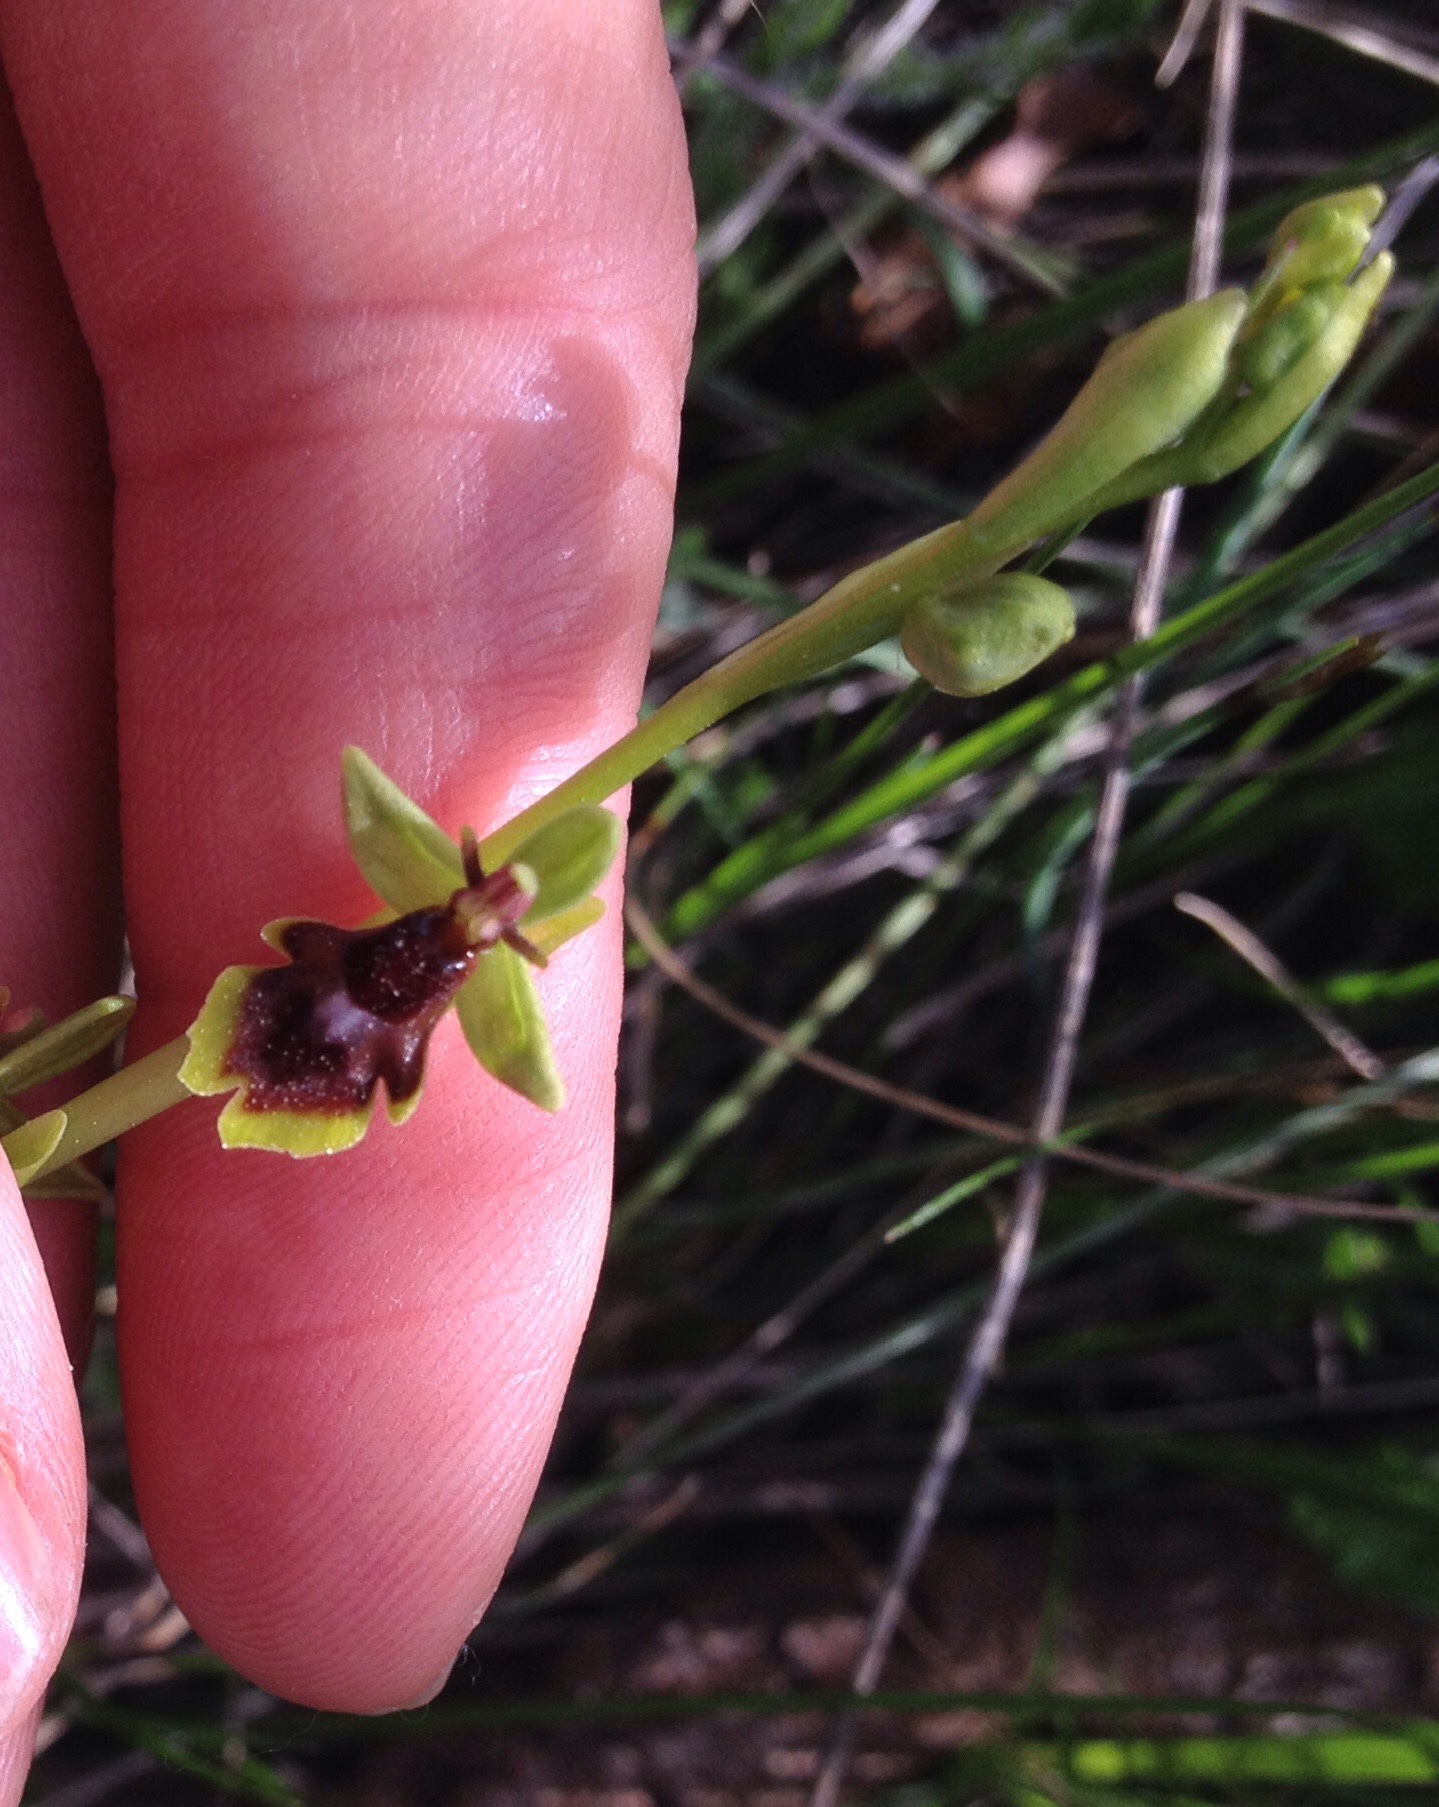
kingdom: Plantae
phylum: Tracheophyta
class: Liliopsida
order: Asparagales
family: Orchidaceae
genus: Ophrys
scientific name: Ophrys insectifera
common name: Fly orchid
